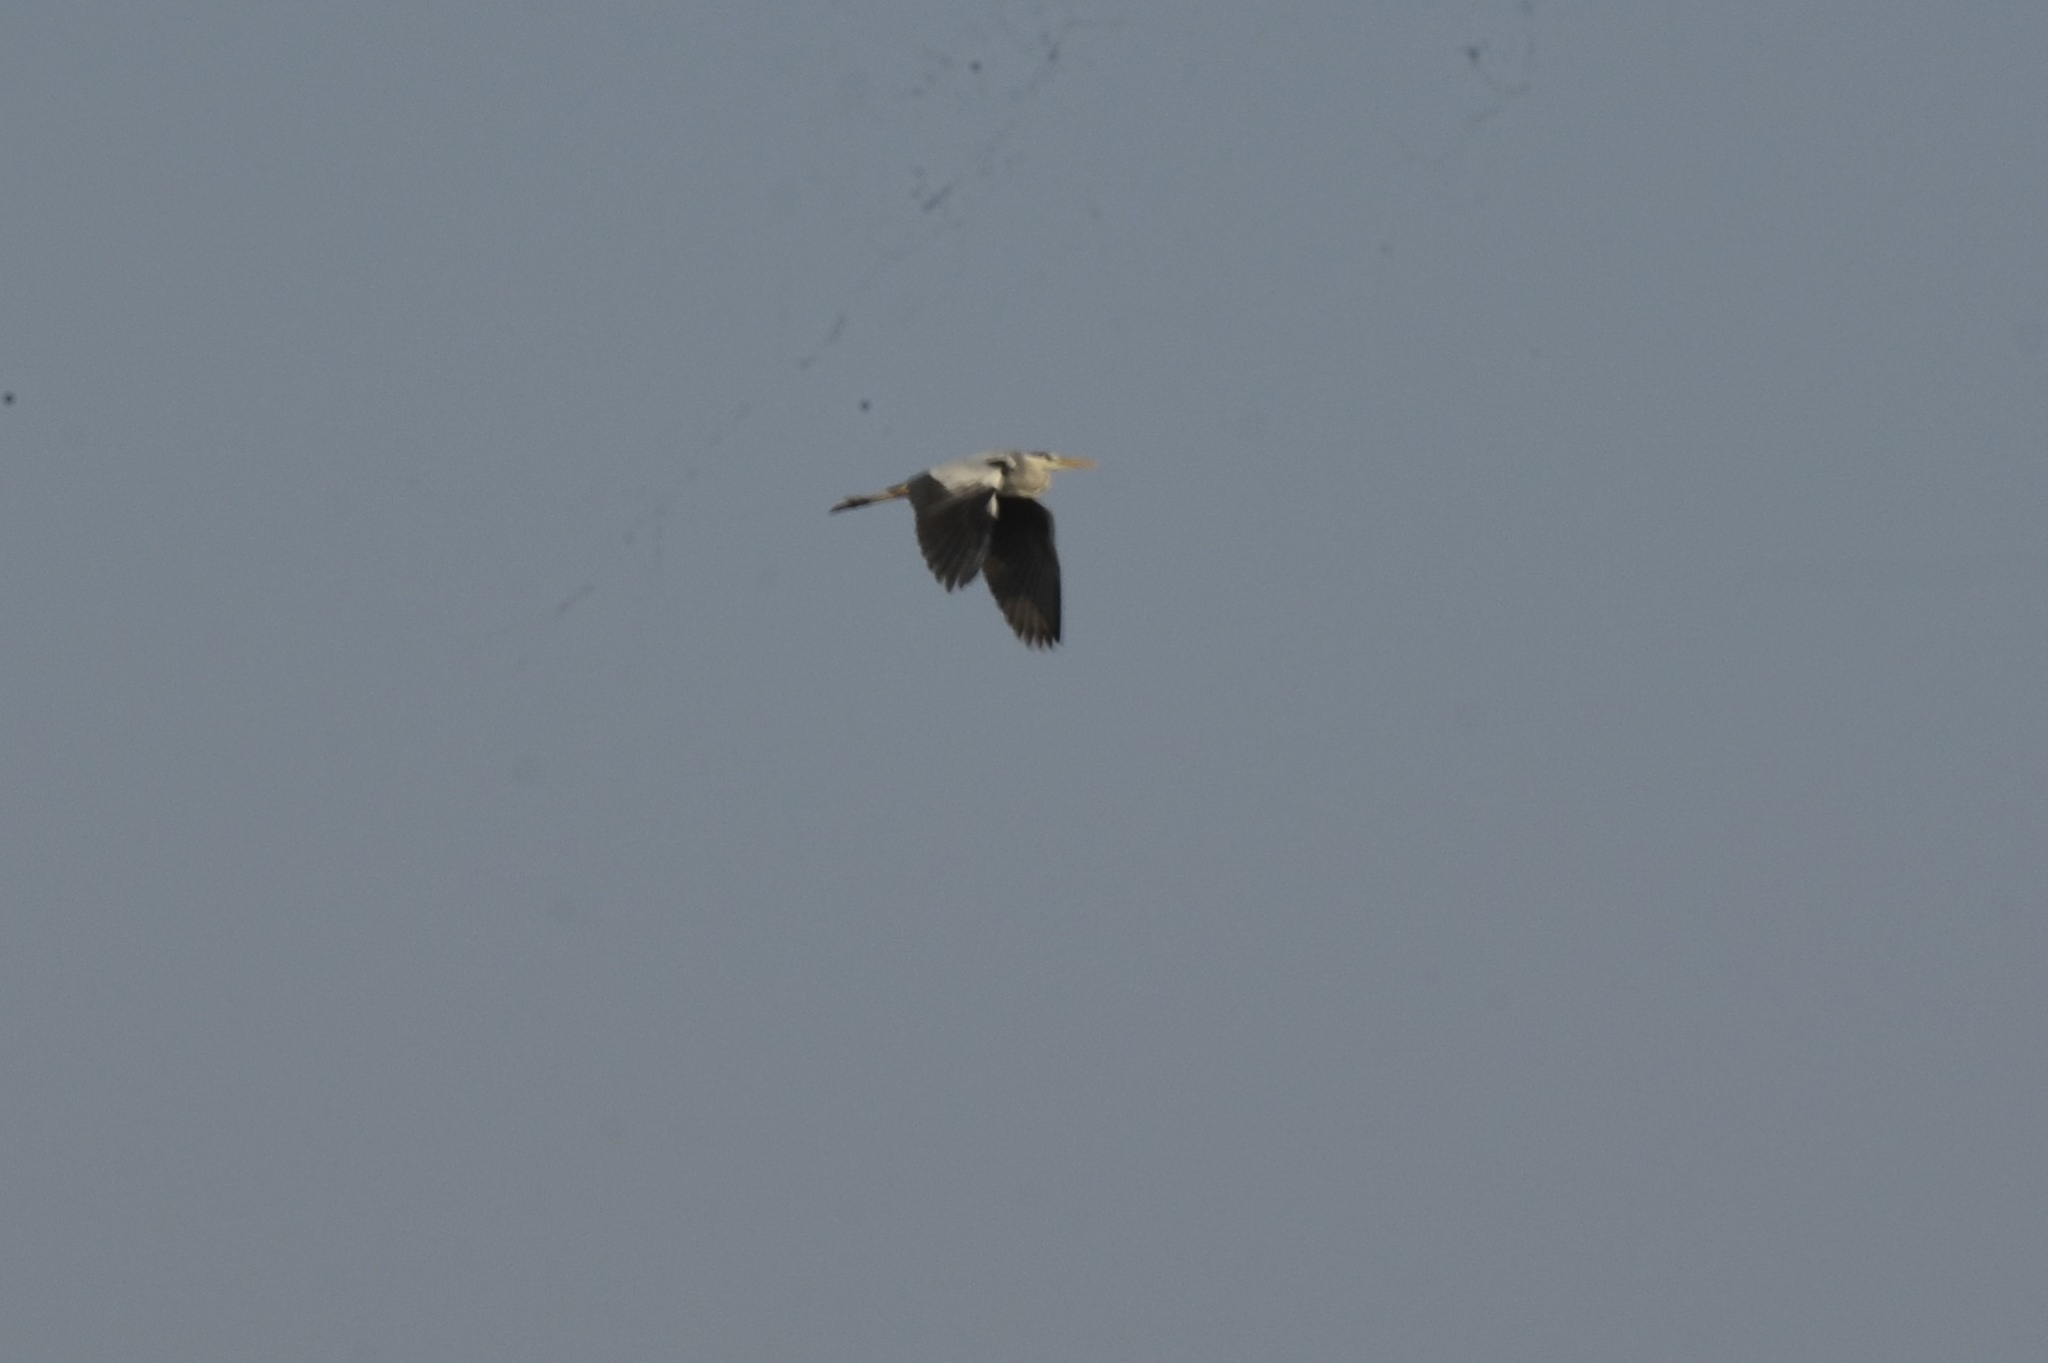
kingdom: Animalia
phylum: Chordata
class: Aves
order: Pelecaniformes
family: Ardeidae
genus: Ardea
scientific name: Ardea cinerea
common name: Grey heron
